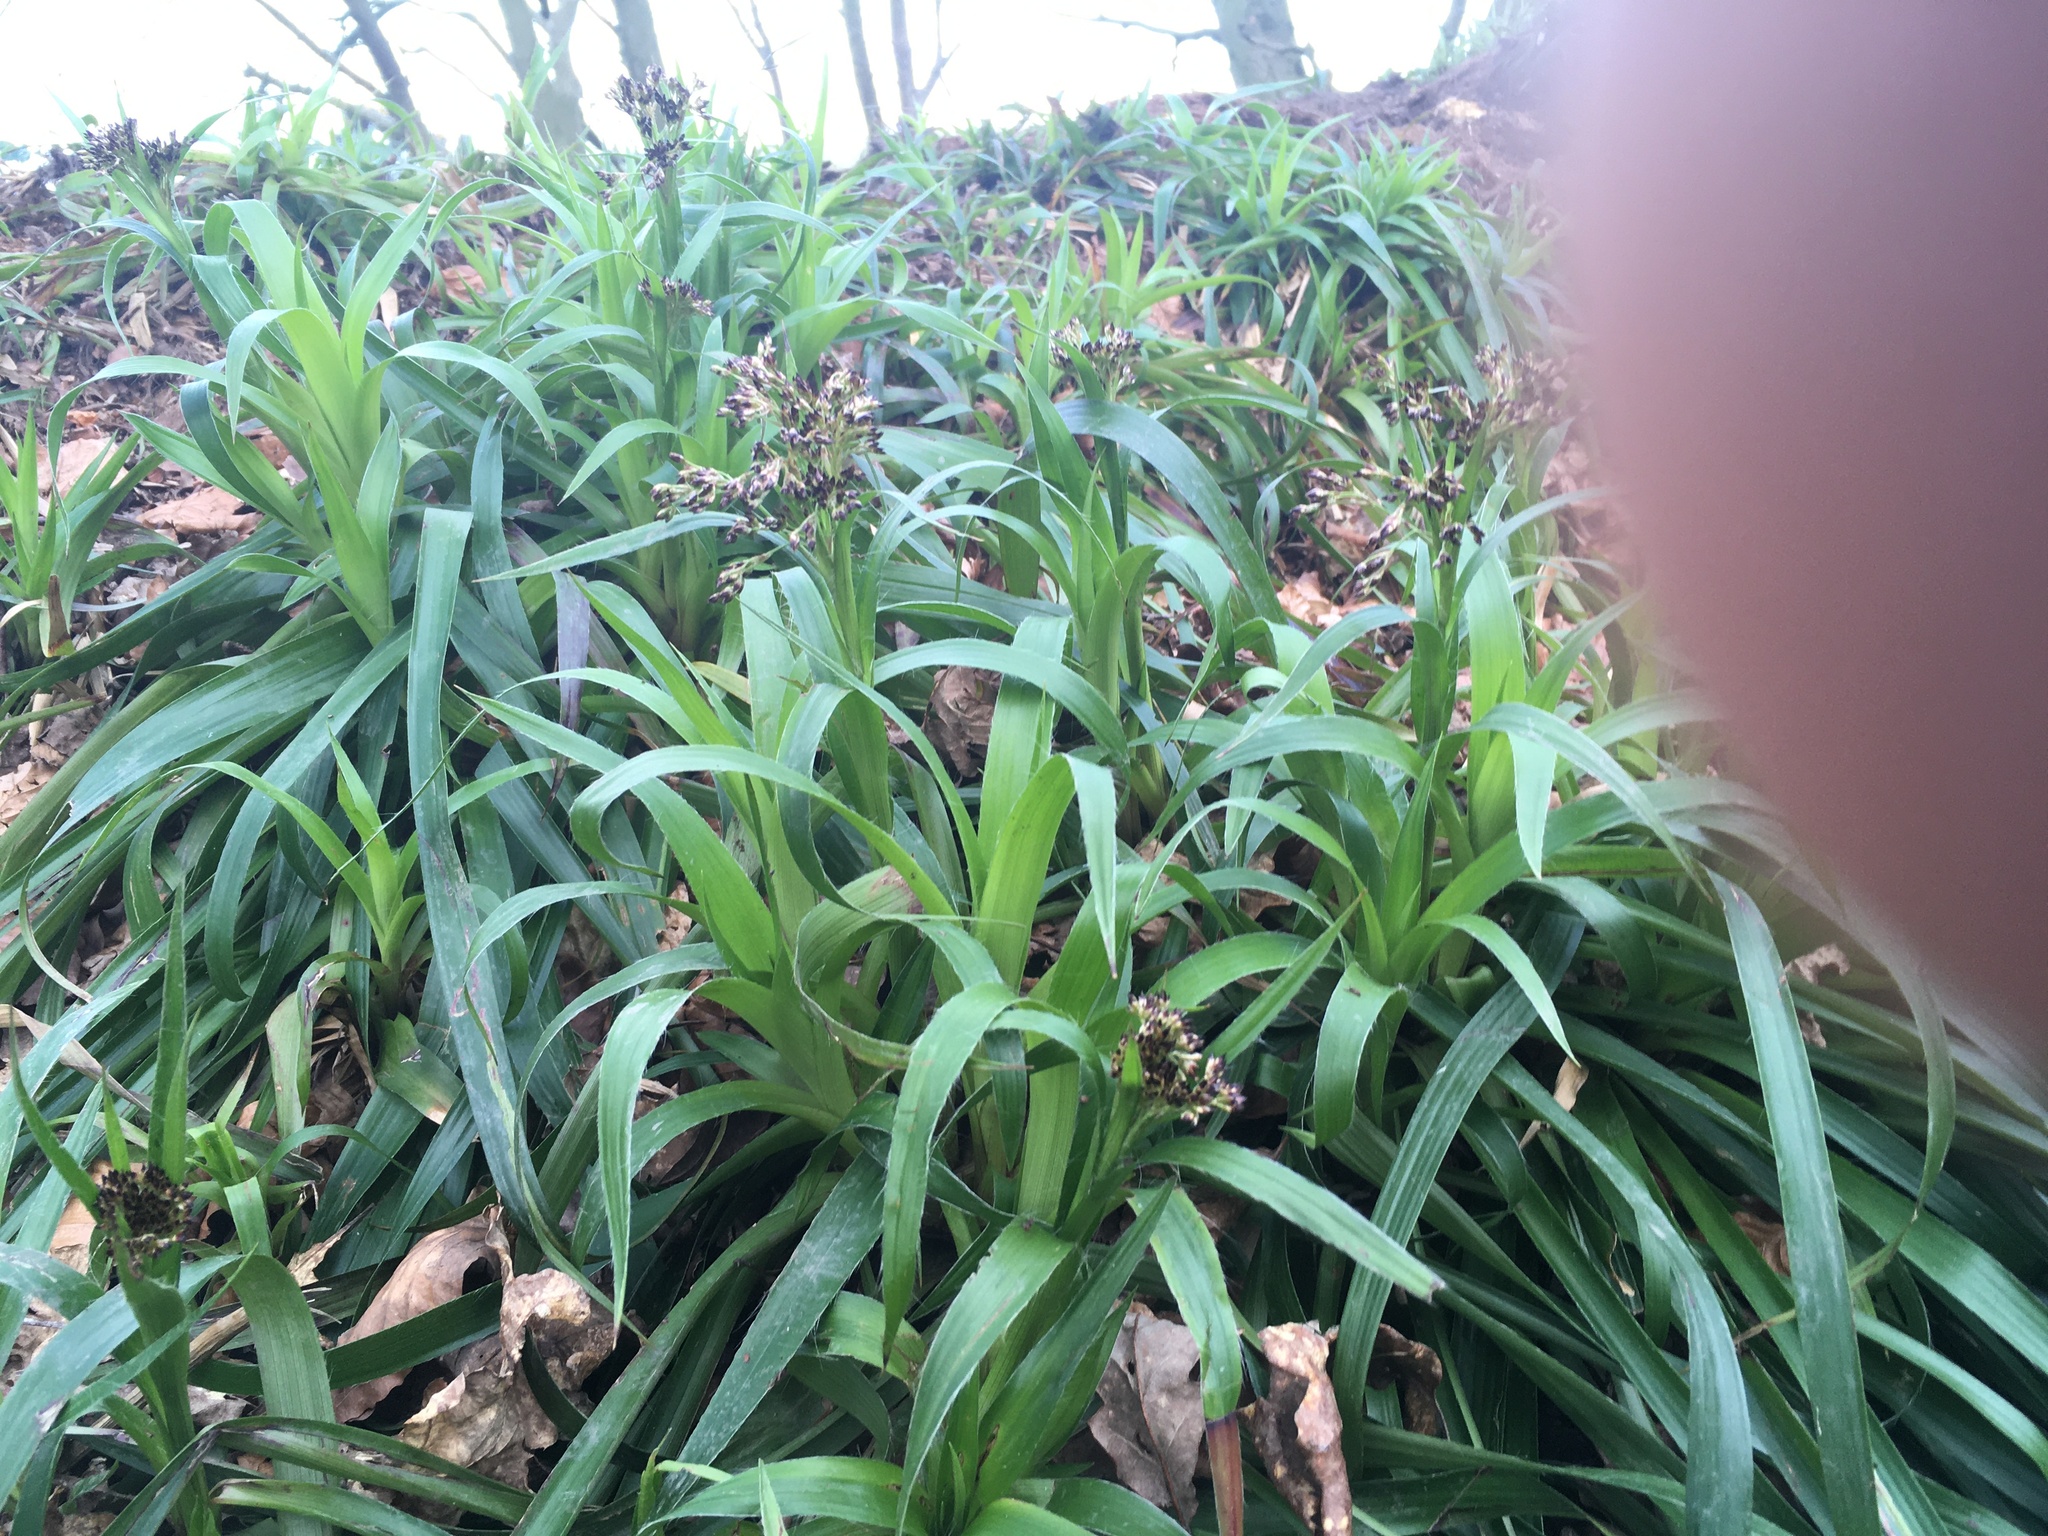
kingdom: Plantae
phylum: Tracheophyta
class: Liliopsida
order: Poales
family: Juncaceae
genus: Luzula
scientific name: Luzula sylvatica
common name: Great wood-rush
